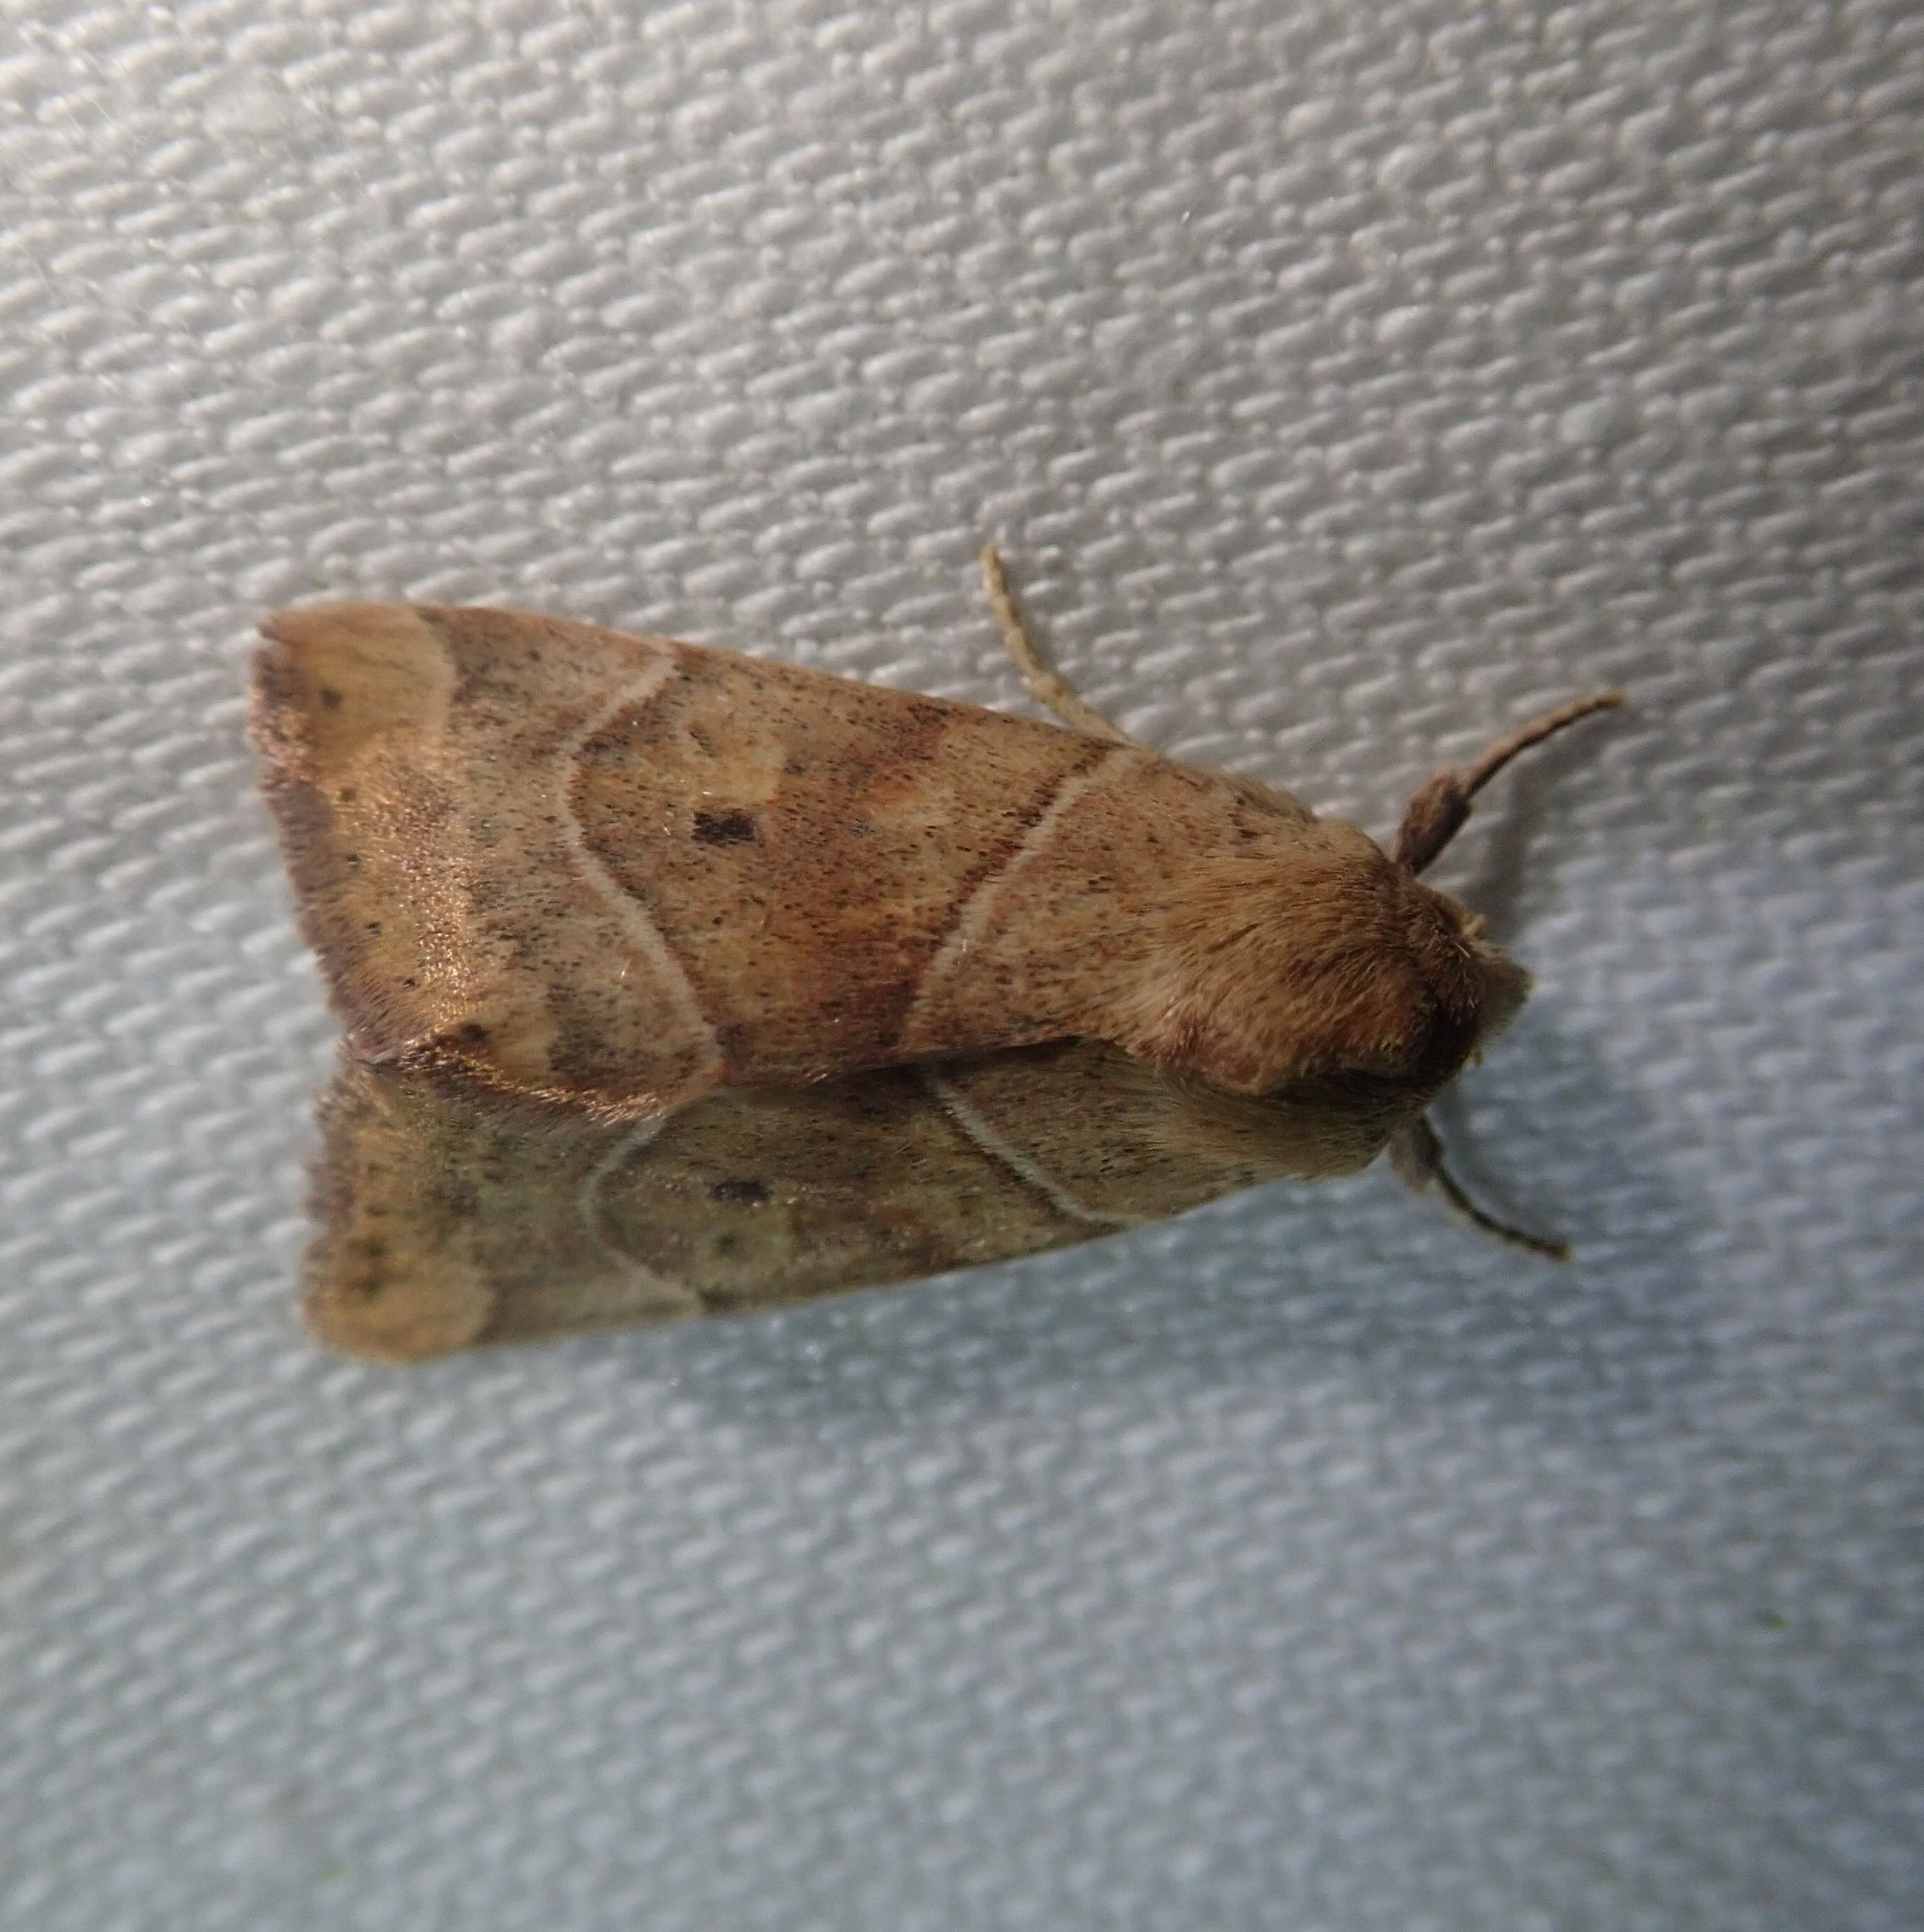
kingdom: Animalia
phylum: Arthropoda
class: Insecta
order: Lepidoptera
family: Noctuidae
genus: Cosmia
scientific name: Cosmia trapezina
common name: Dun-bar
